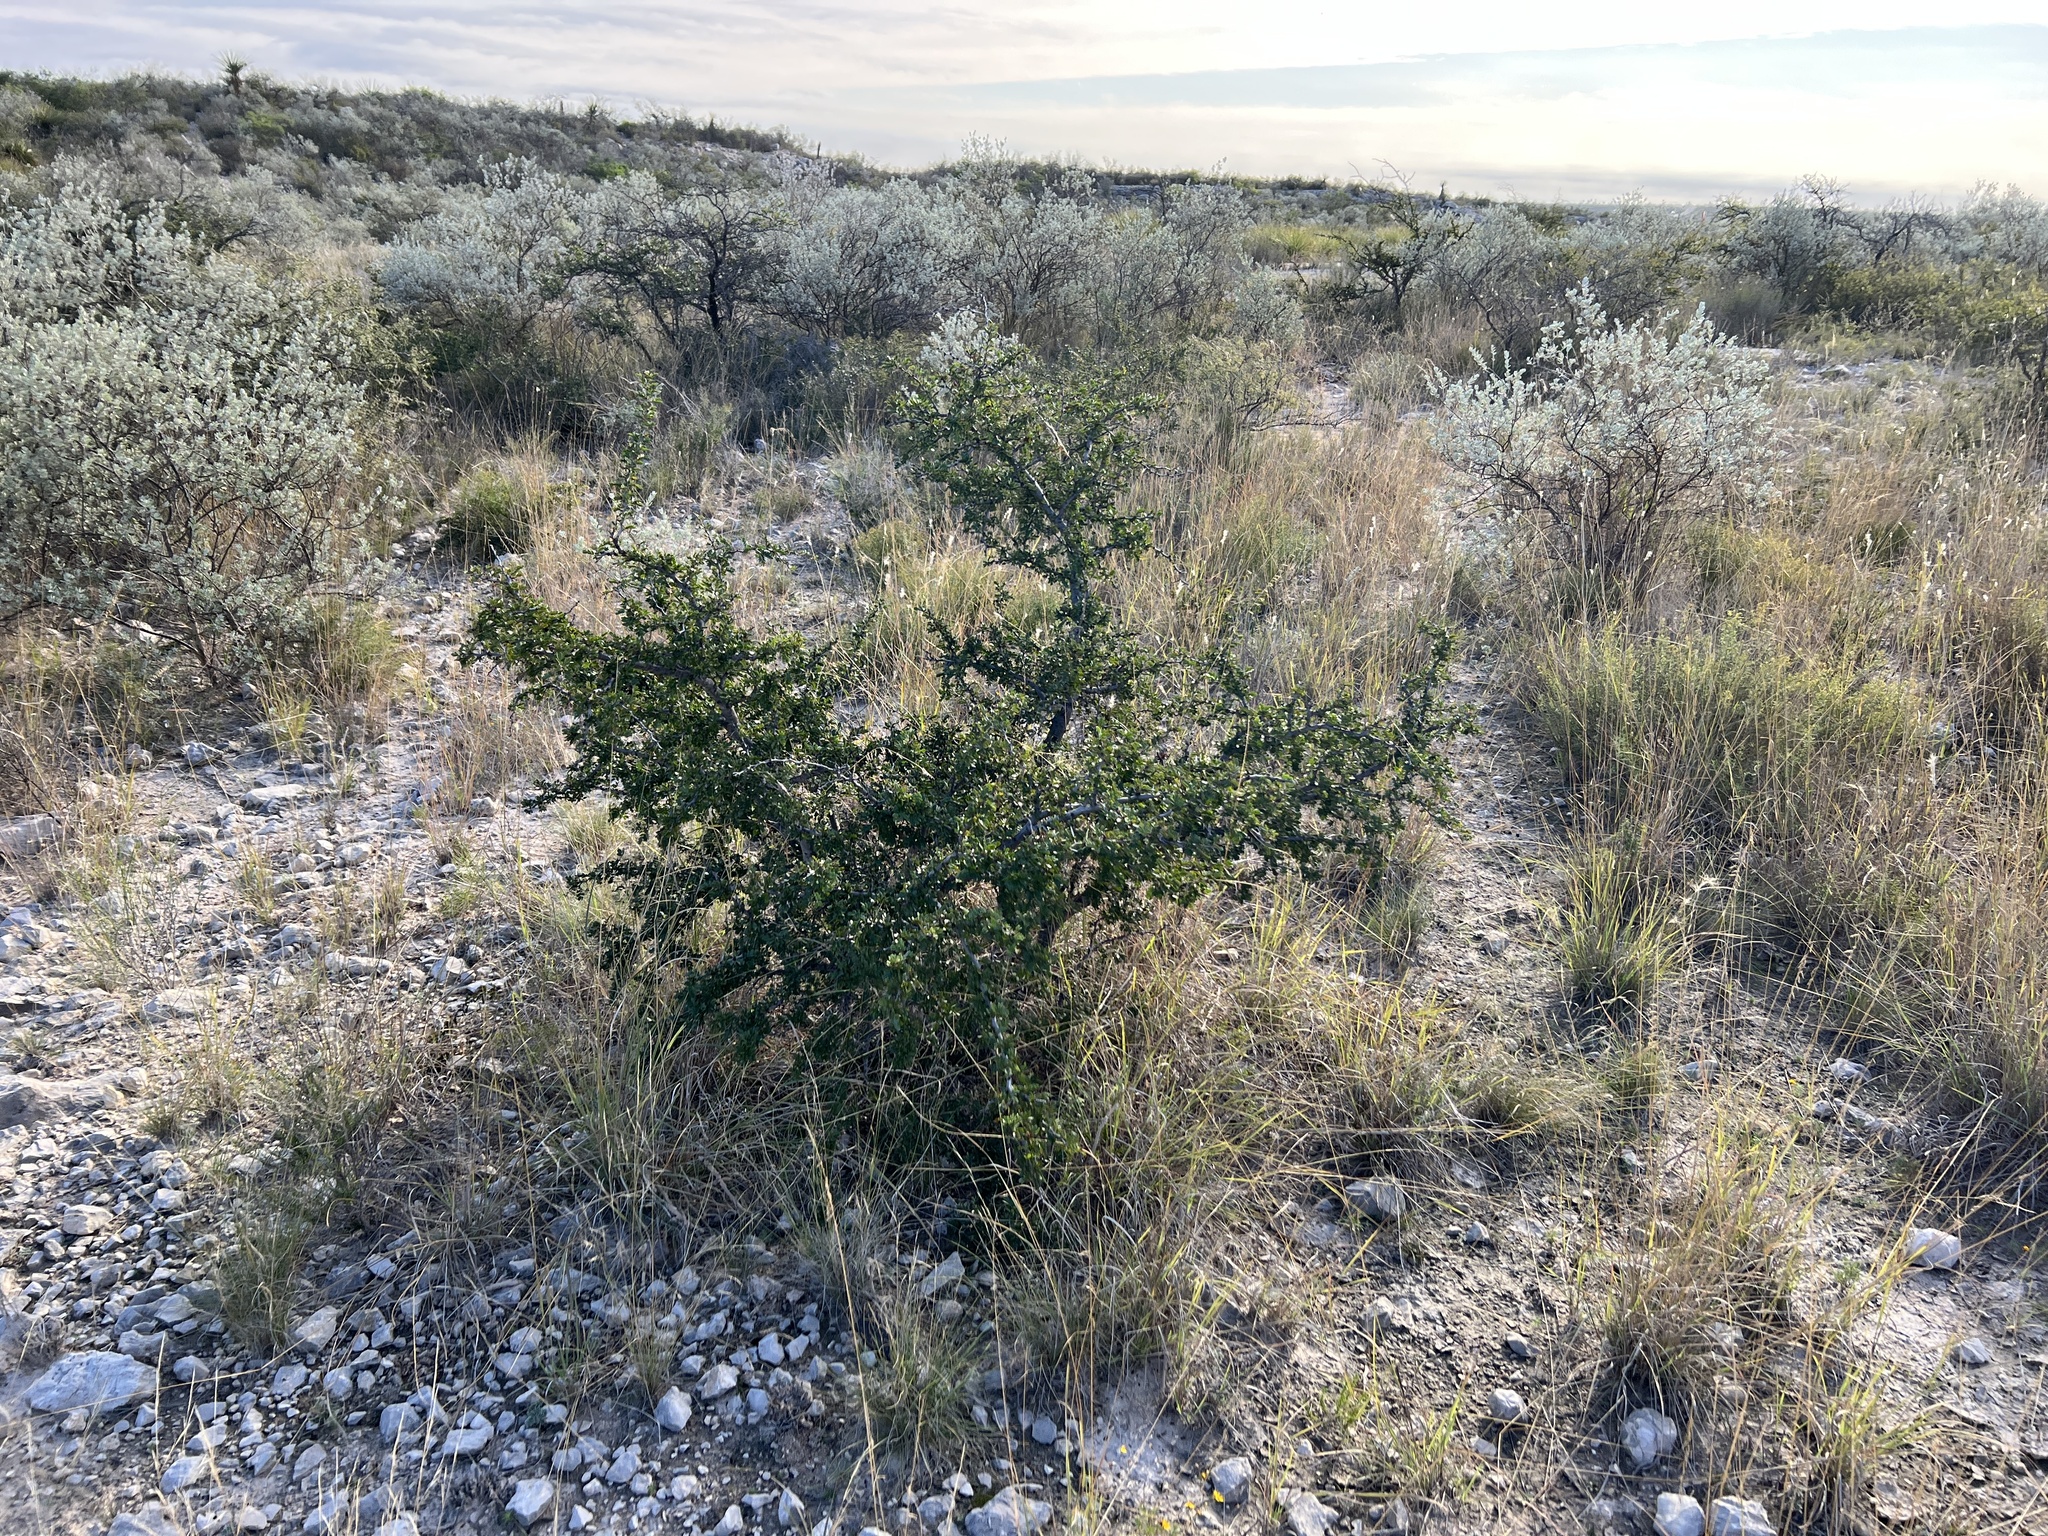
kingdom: Plantae
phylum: Tracheophyta
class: Magnoliopsida
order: Fabales
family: Fabaceae
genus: Vachellia
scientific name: Vachellia rigidula
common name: Blackbrush
